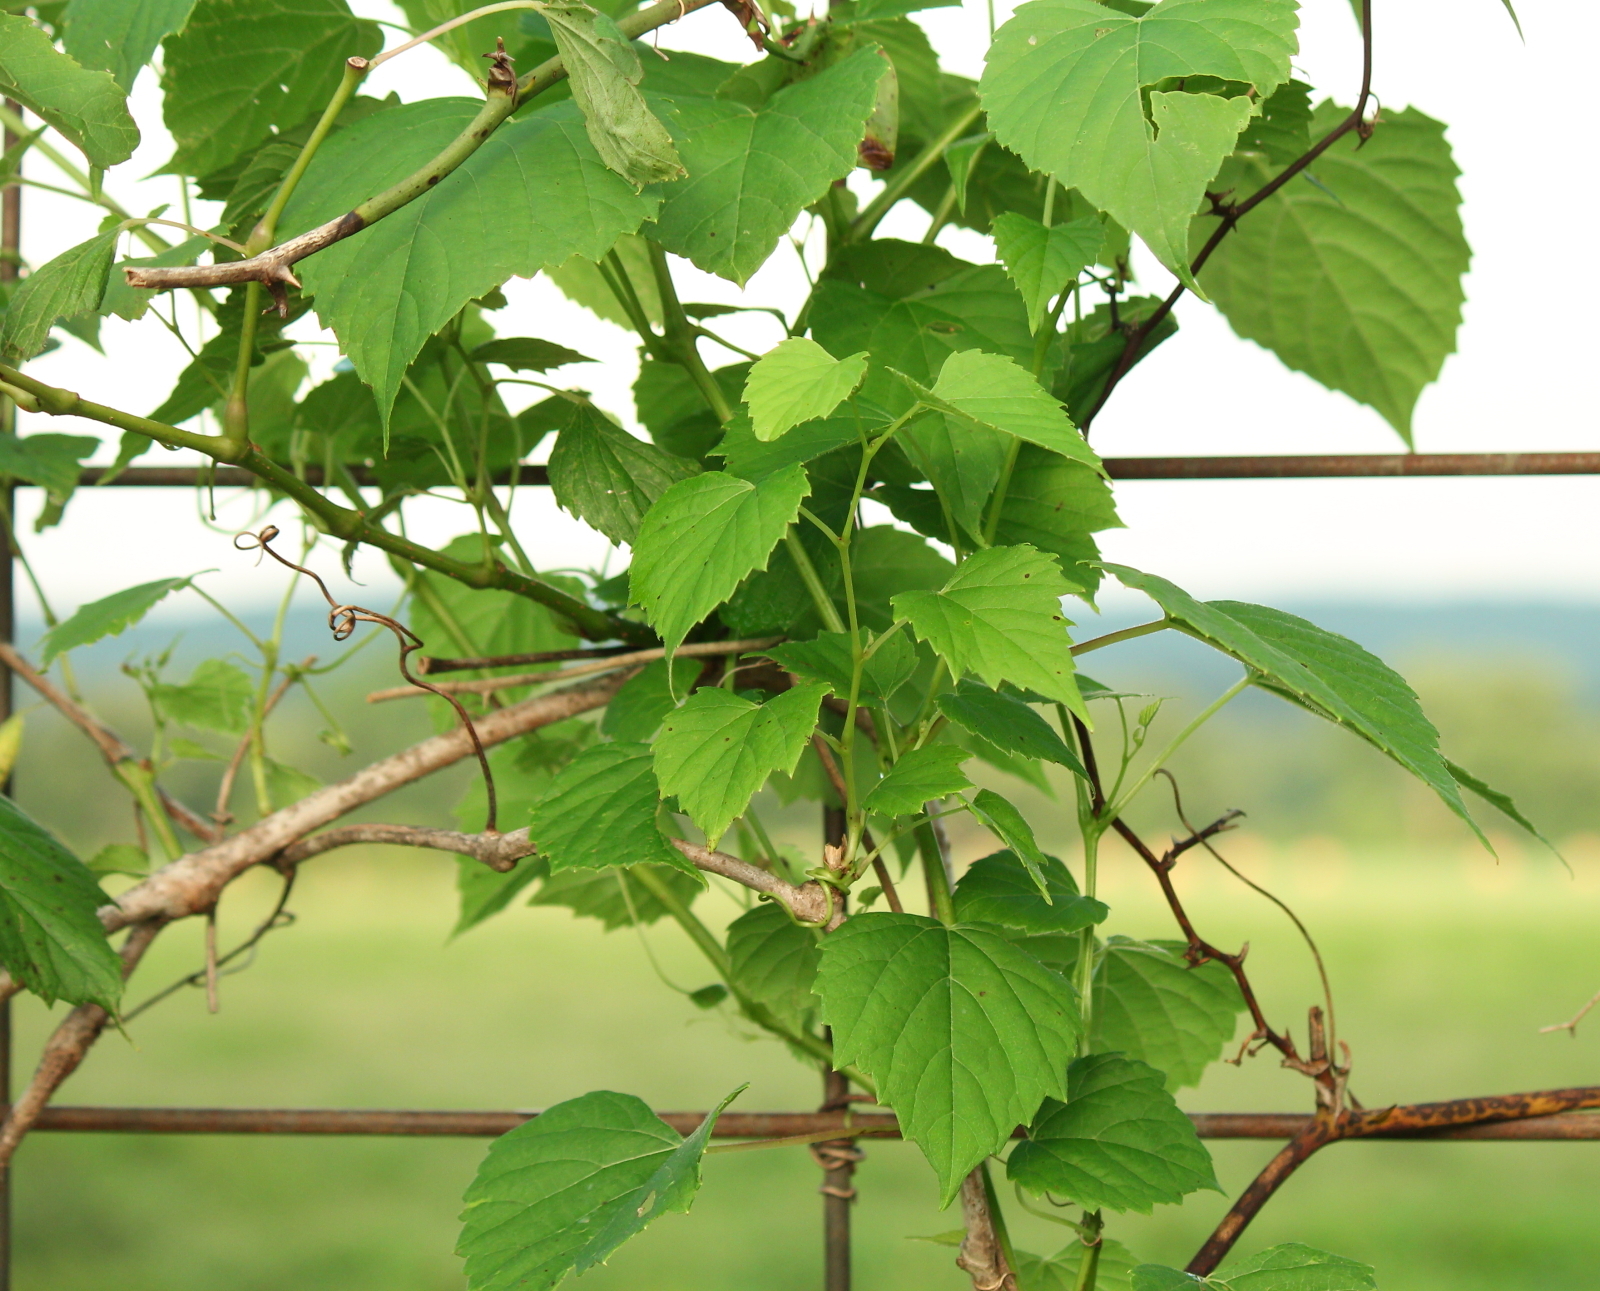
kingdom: Plantae
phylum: Tracheophyta
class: Magnoliopsida
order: Vitales
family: Vitaceae
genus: Ampelopsis
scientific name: Ampelopsis cordata
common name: Heart-leaf ampelopsis
